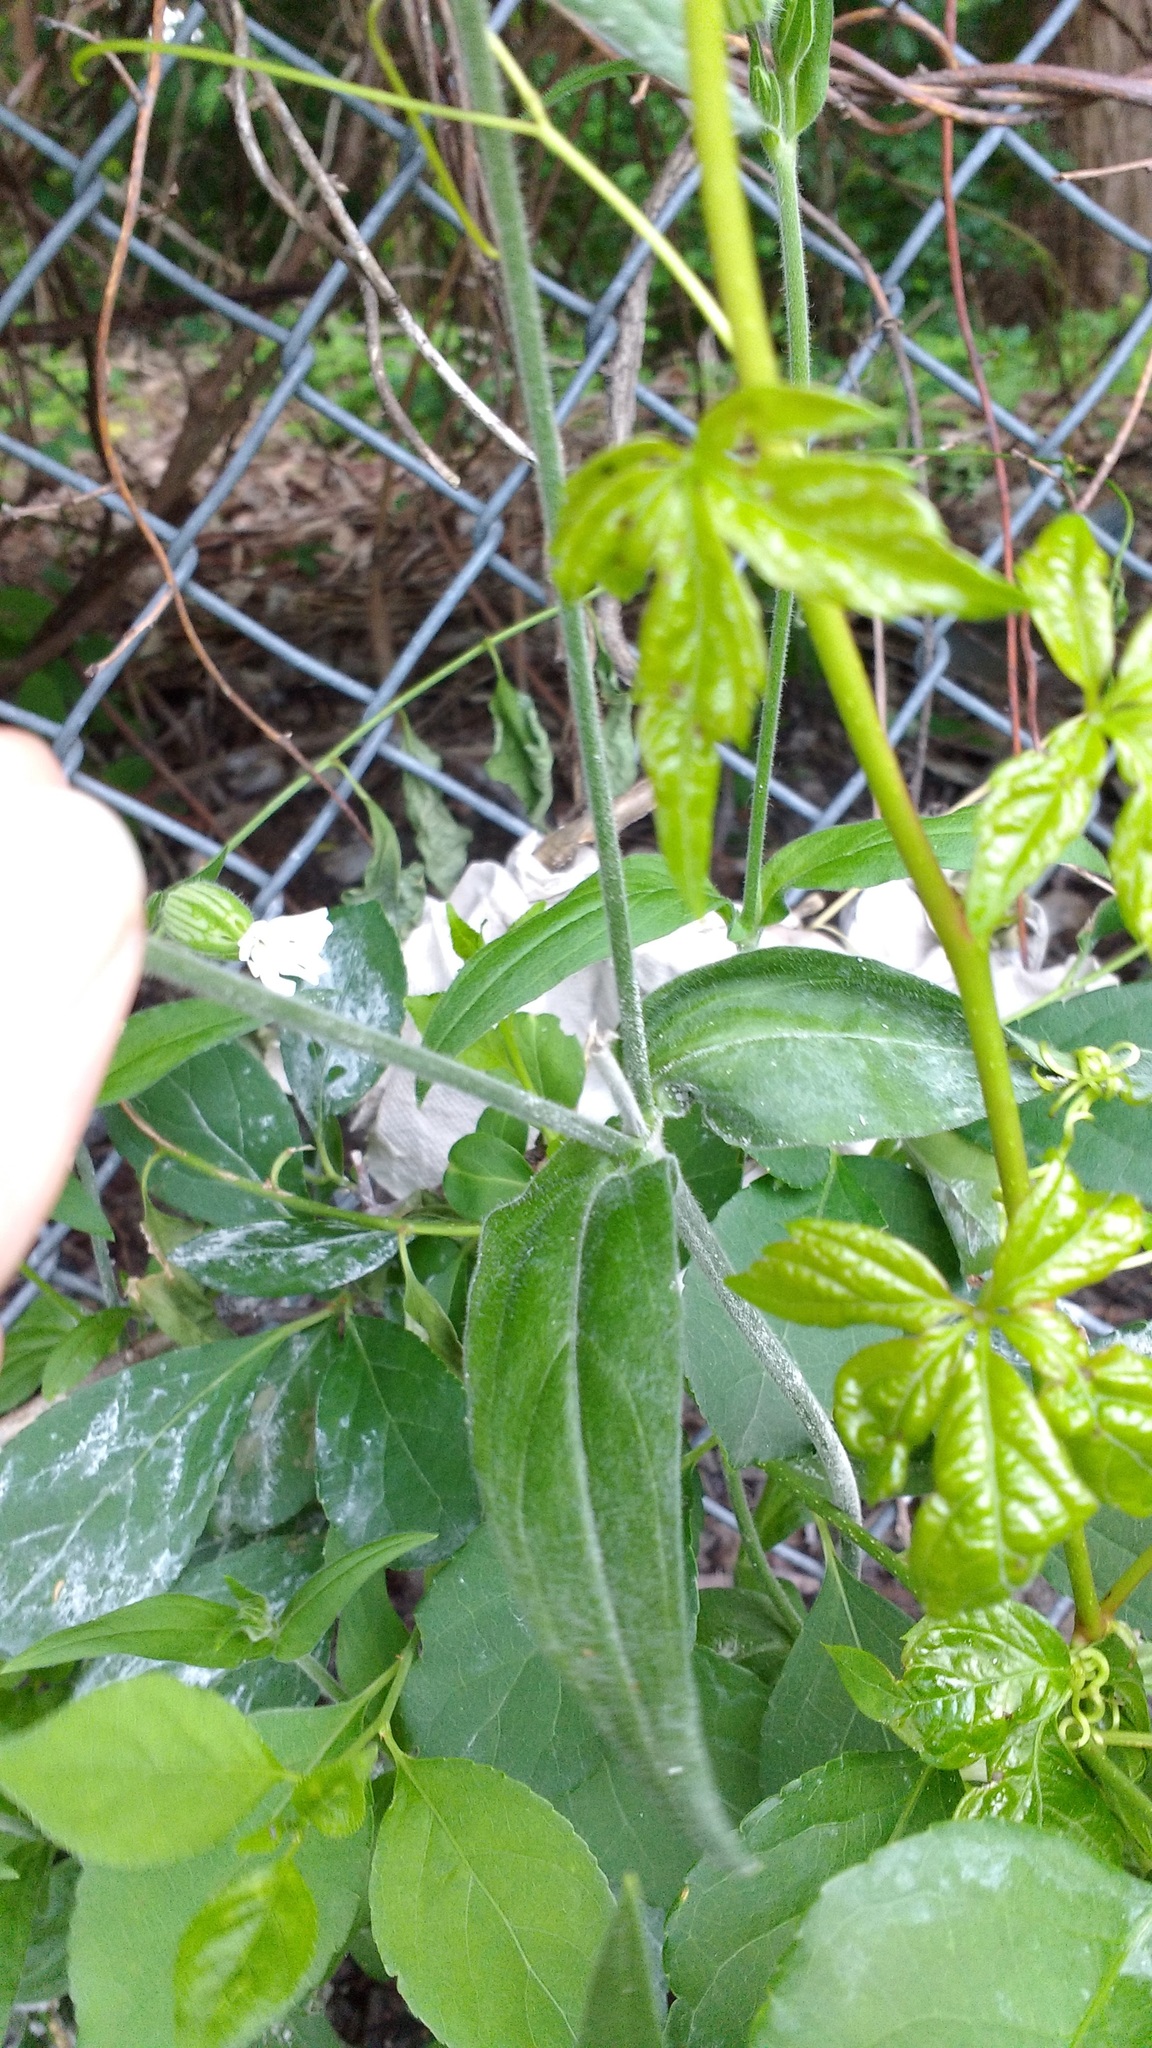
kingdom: Plantae
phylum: Tracheophyta
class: Magnoliopsida
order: Caryophyllales
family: Caryophyllaceae
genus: Silene
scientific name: Silene latifolia
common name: White campion
